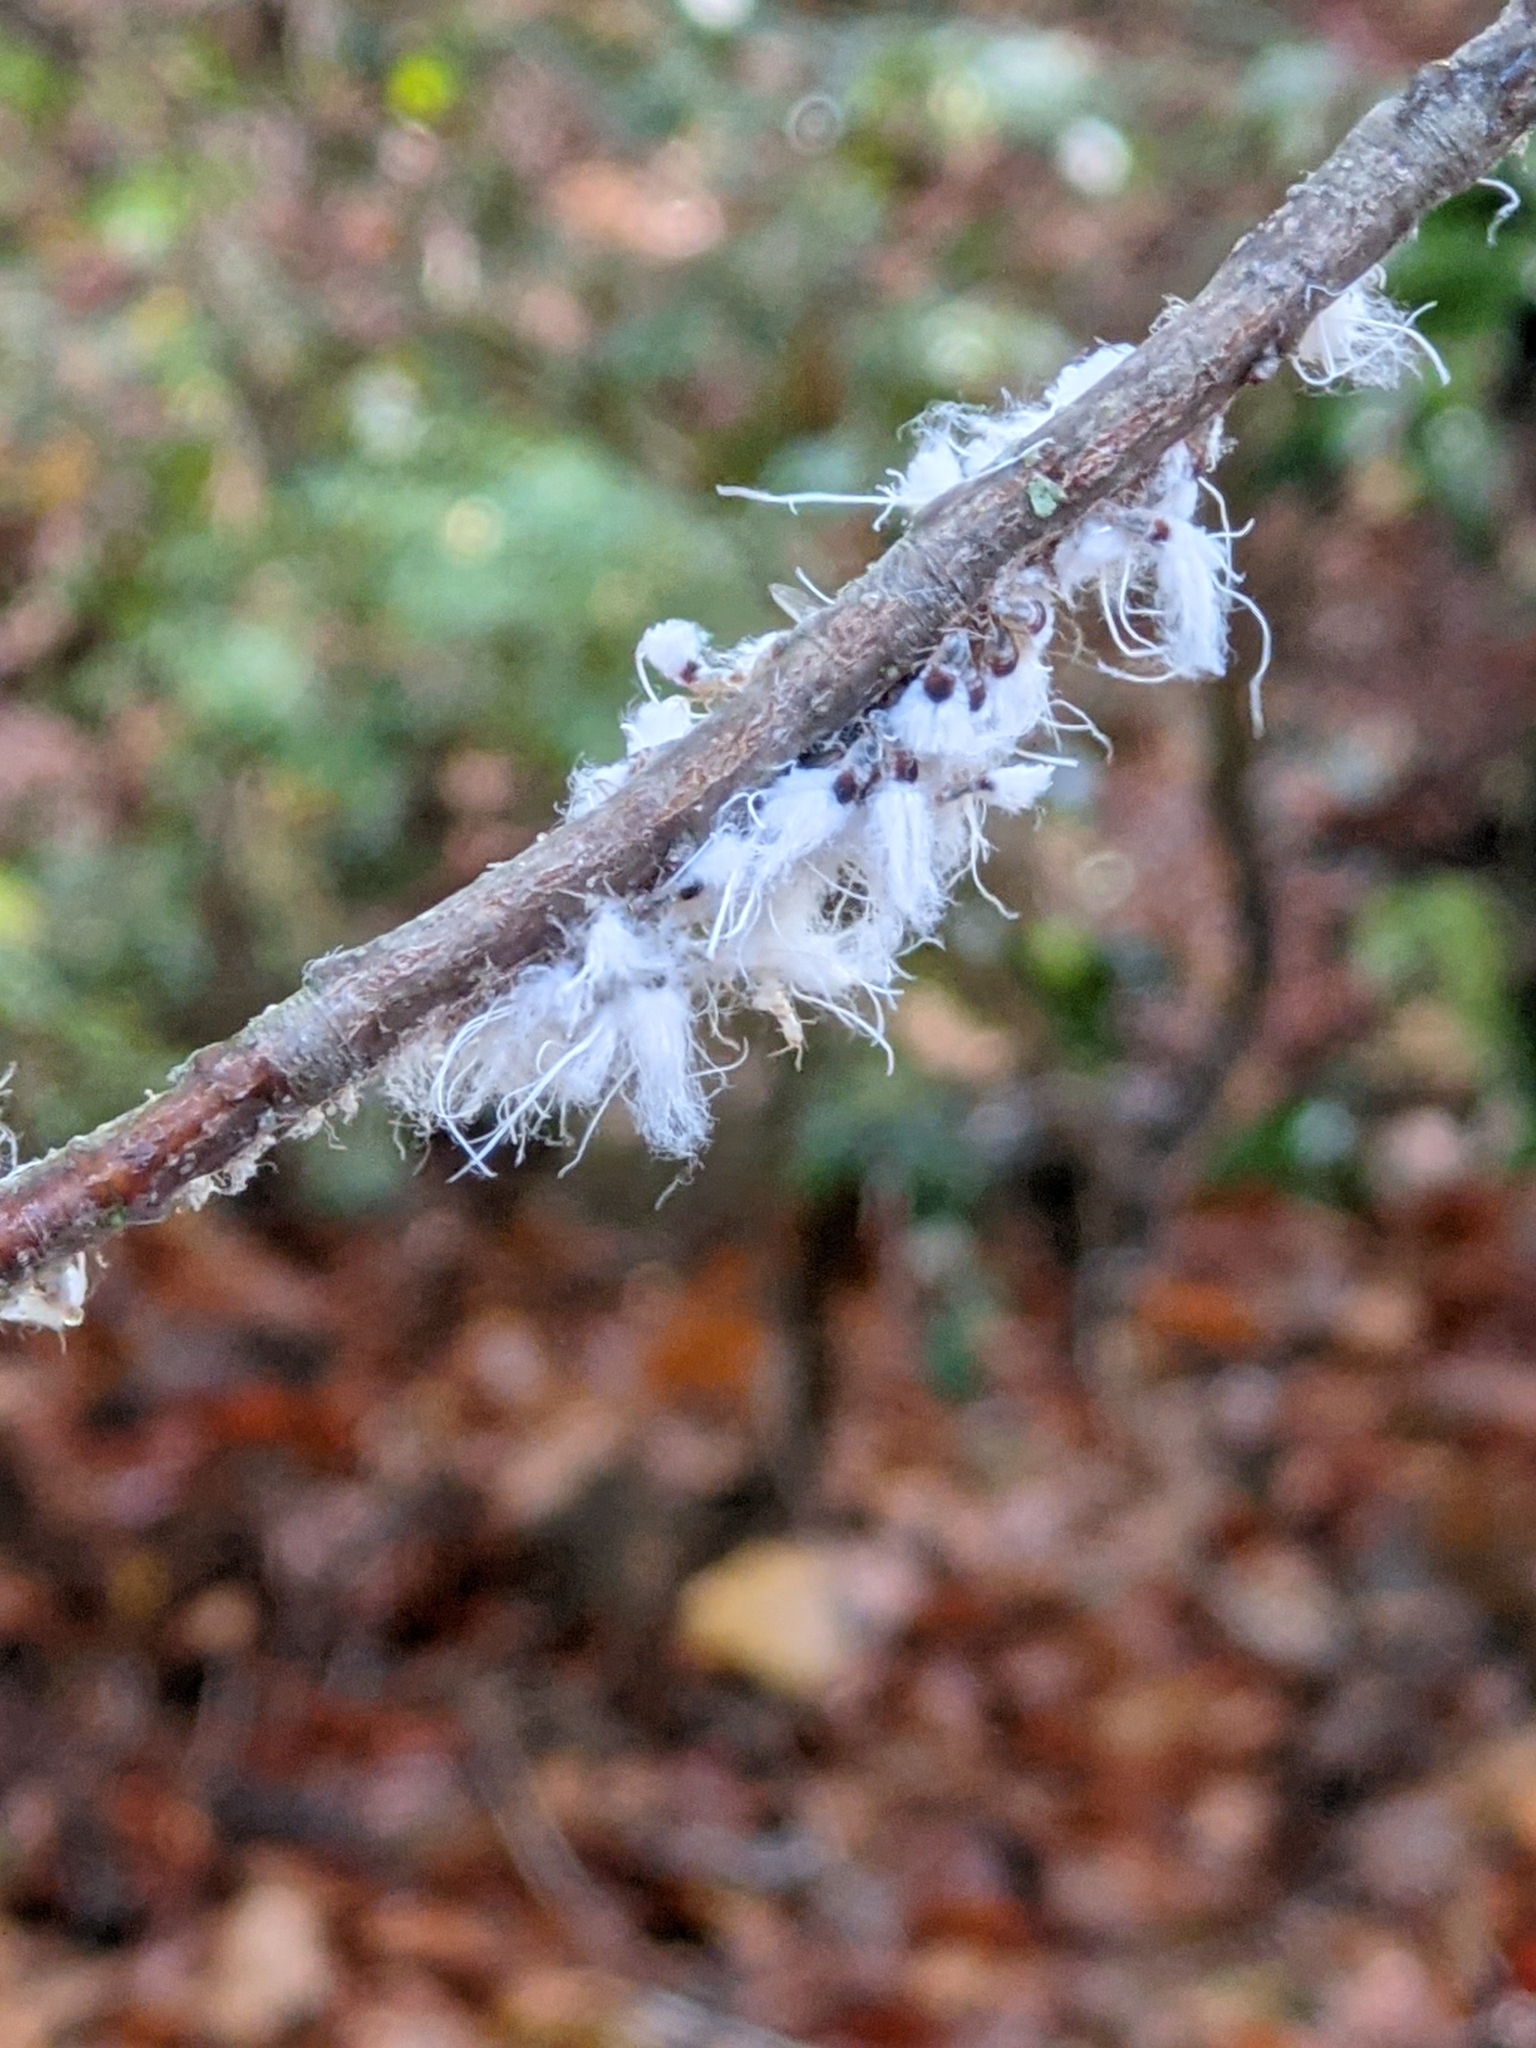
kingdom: Animalia
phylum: Arthropoda
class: Insecta
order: Hemiptera
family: Aphididae
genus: Grylloprociphilus
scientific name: Grylloprociphilus imbricator
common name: Beech blight aphid
